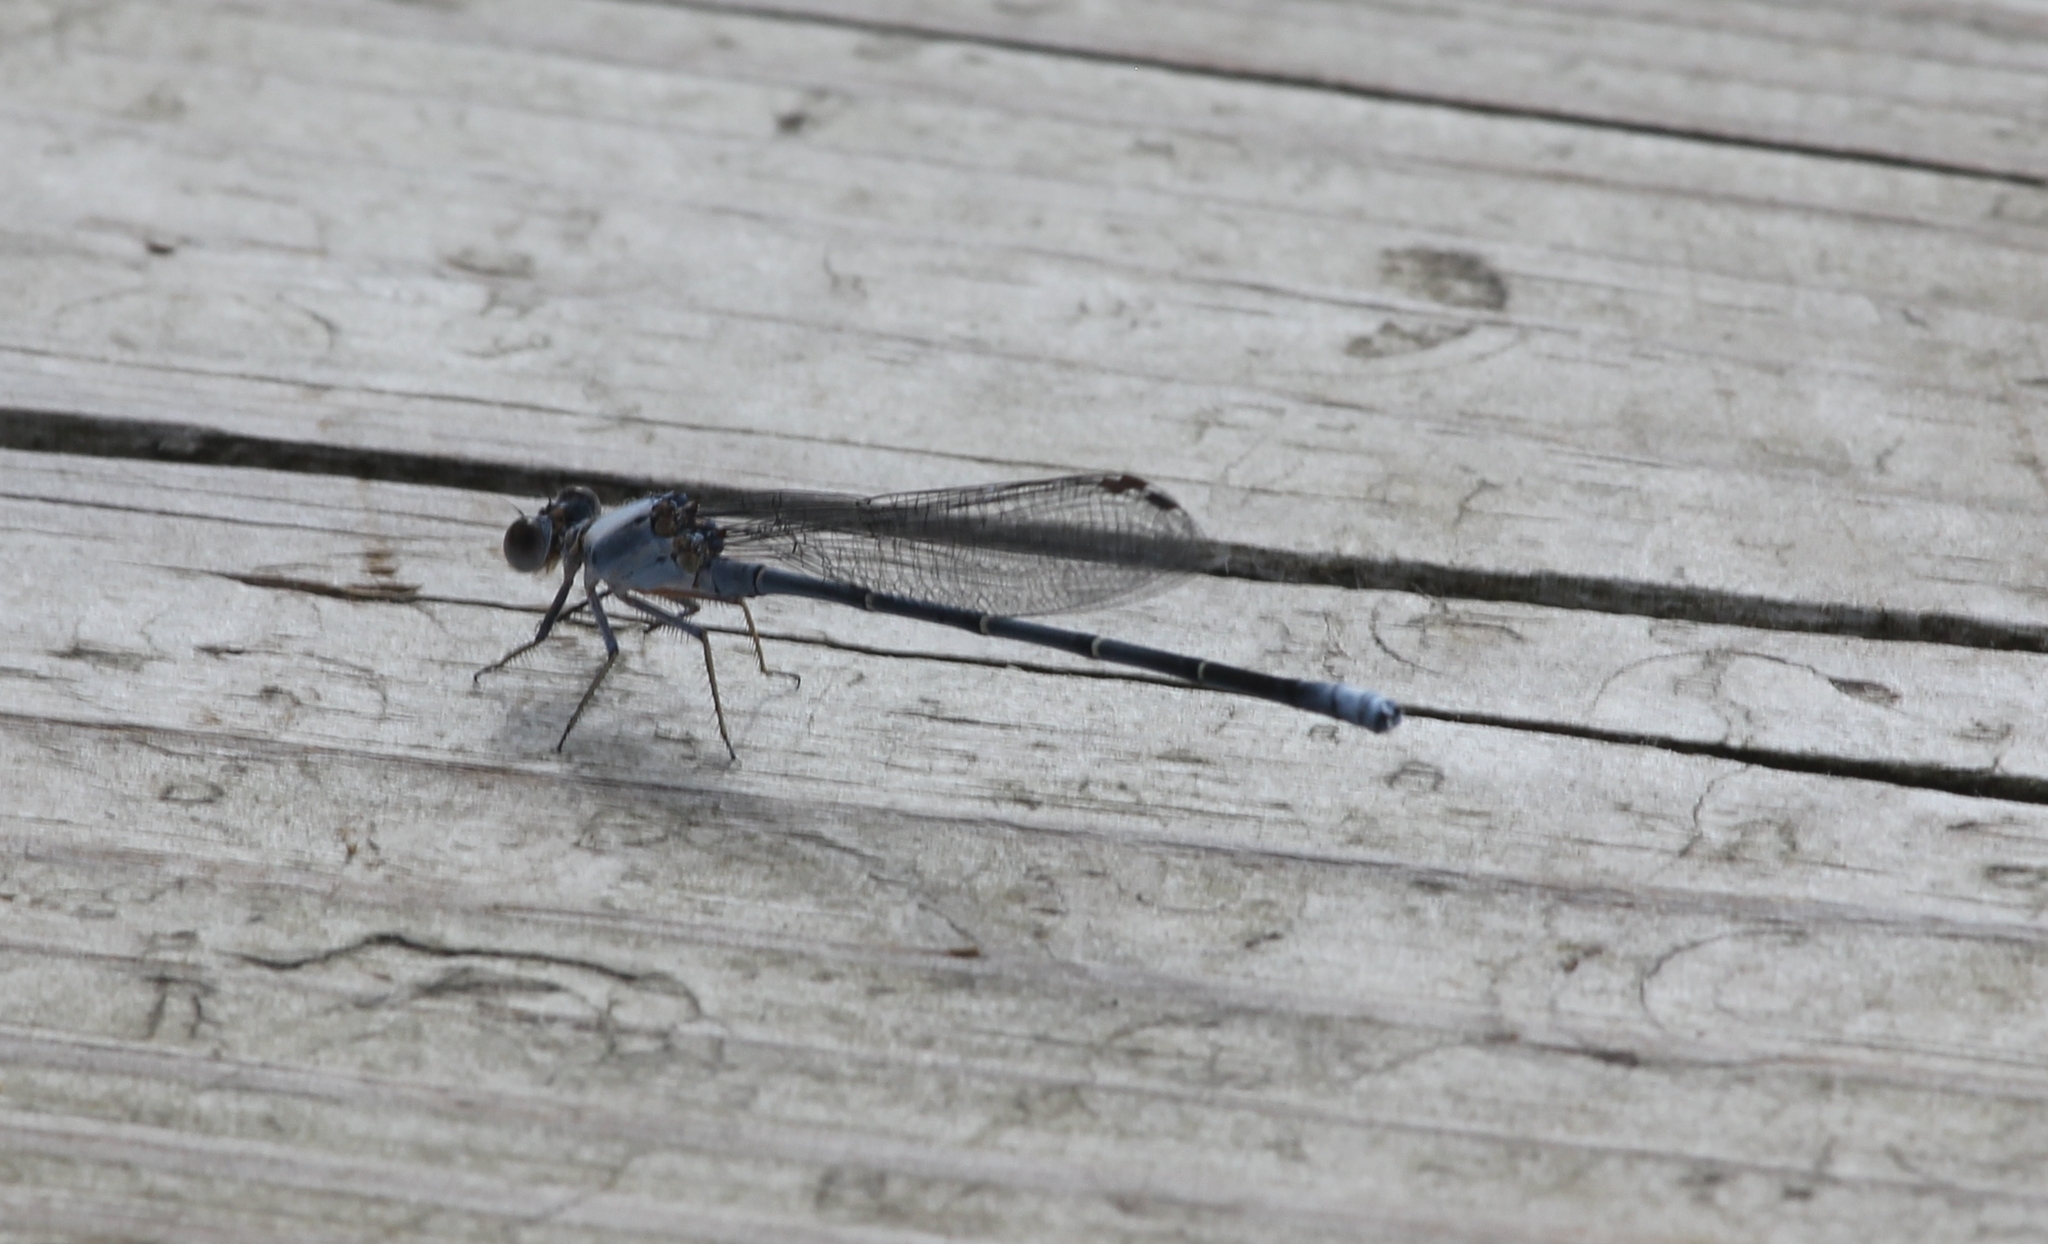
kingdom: Animalia
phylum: Arthropoda
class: Insecta
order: Odonata
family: Coenagrionidae
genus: Argia
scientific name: Argia moesta
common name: Powdered dancer
